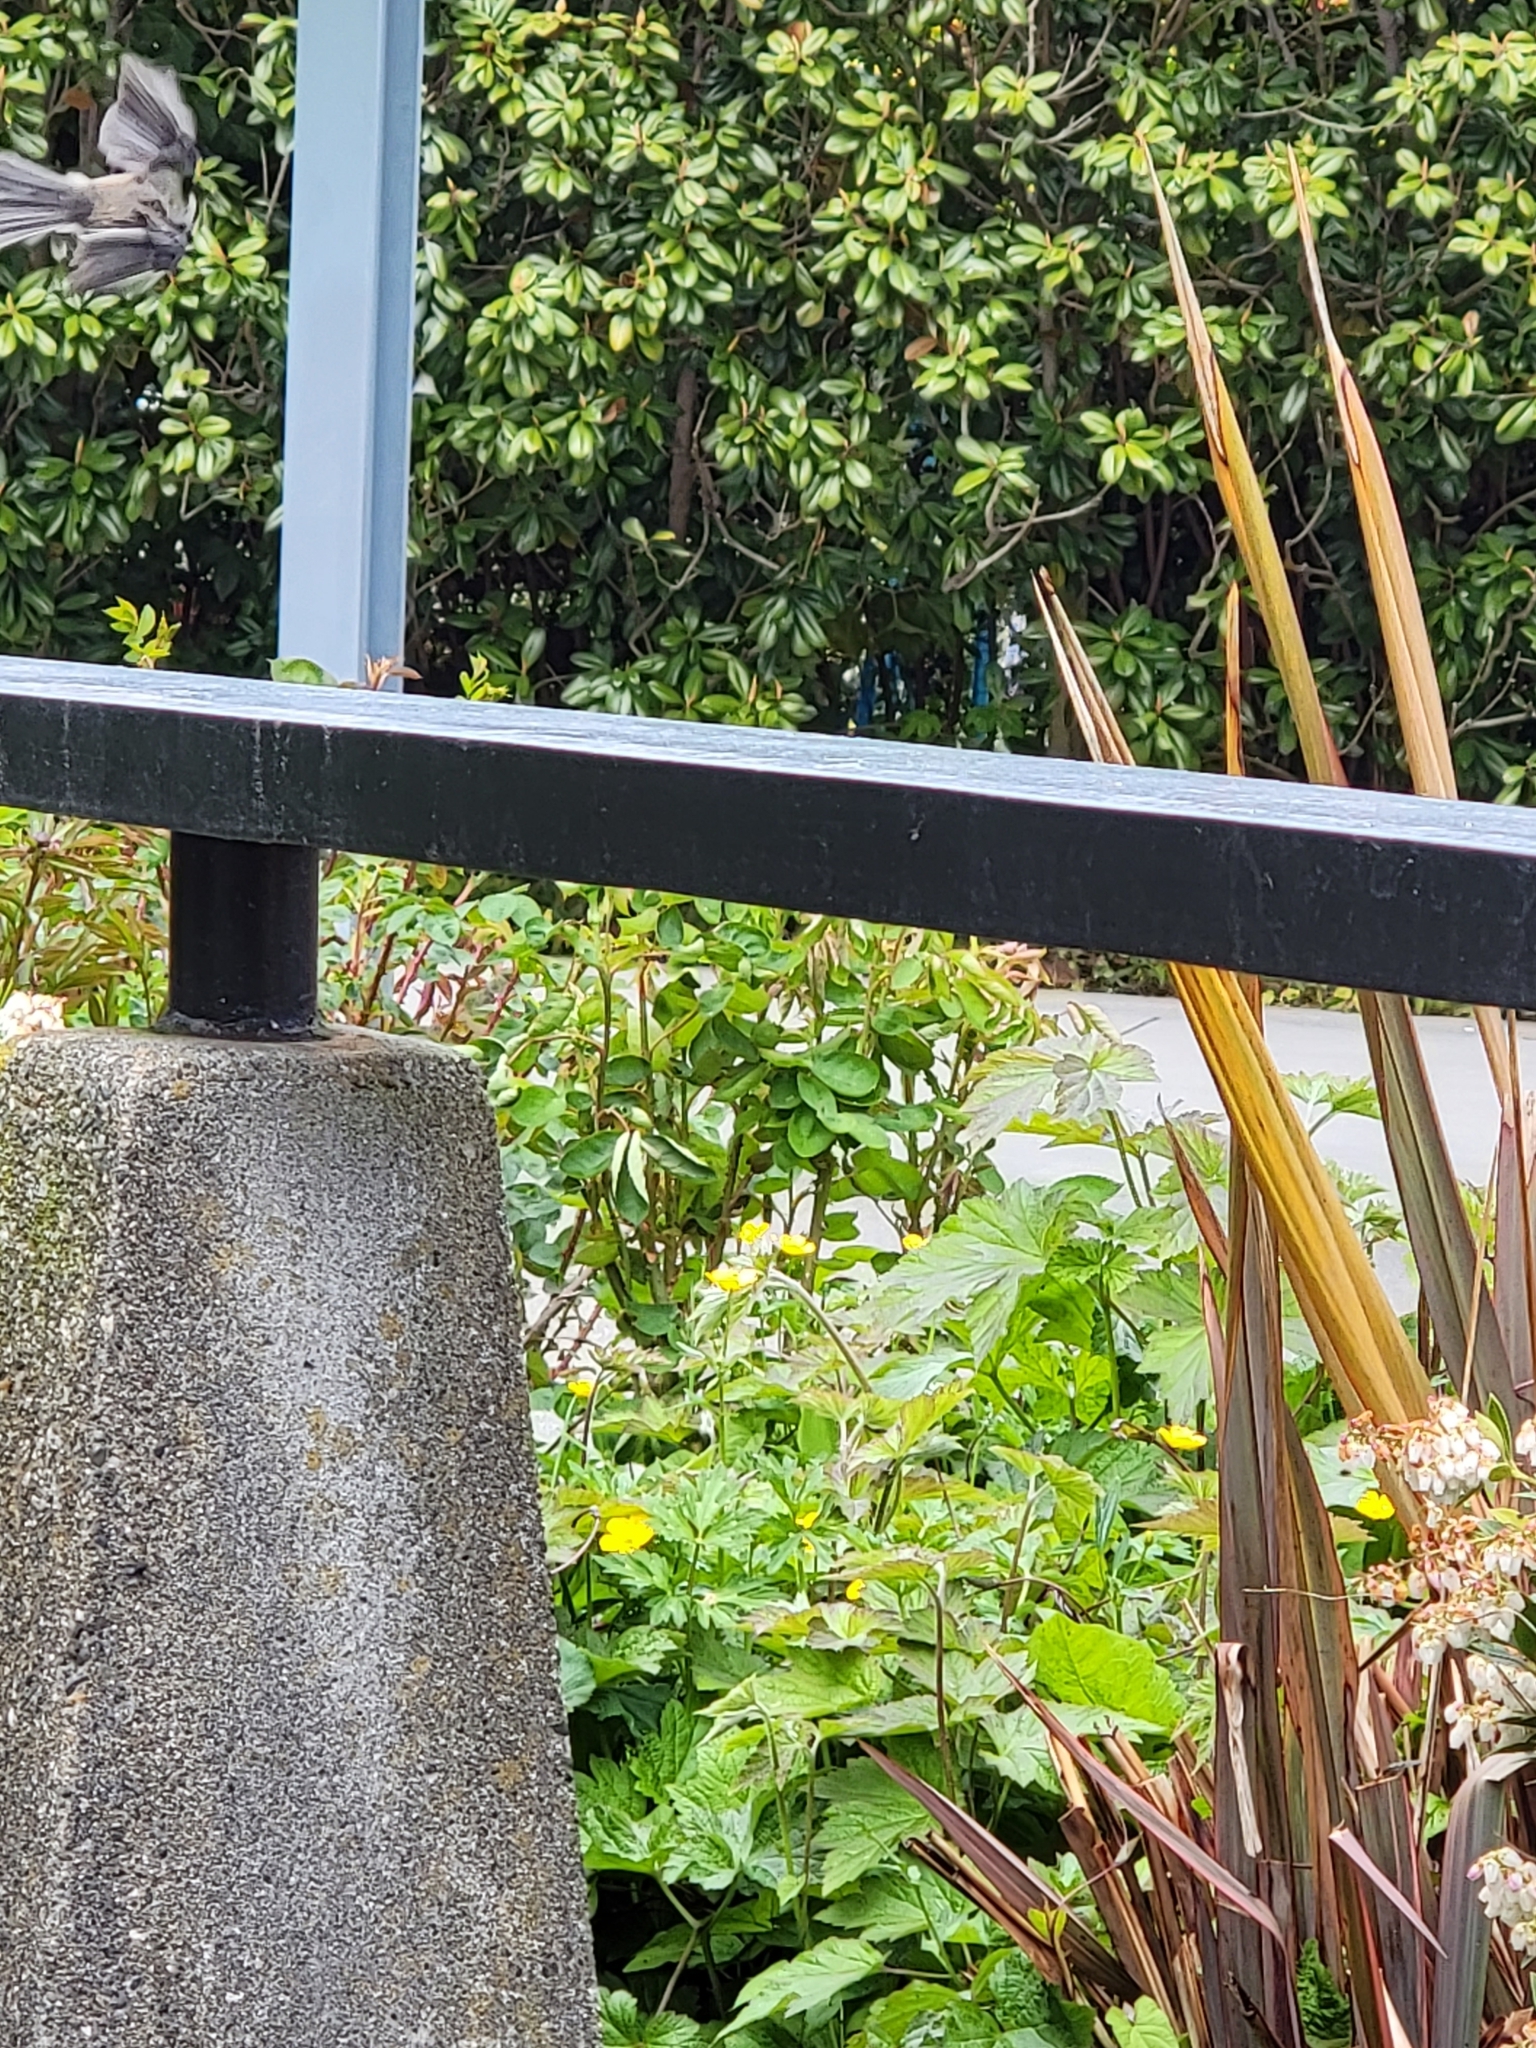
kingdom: Animalia
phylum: Chordata
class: Aves
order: Passeriformes
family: Paridae
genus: Poecile
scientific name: Poecile atricapillus
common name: Black-capped chickadee
